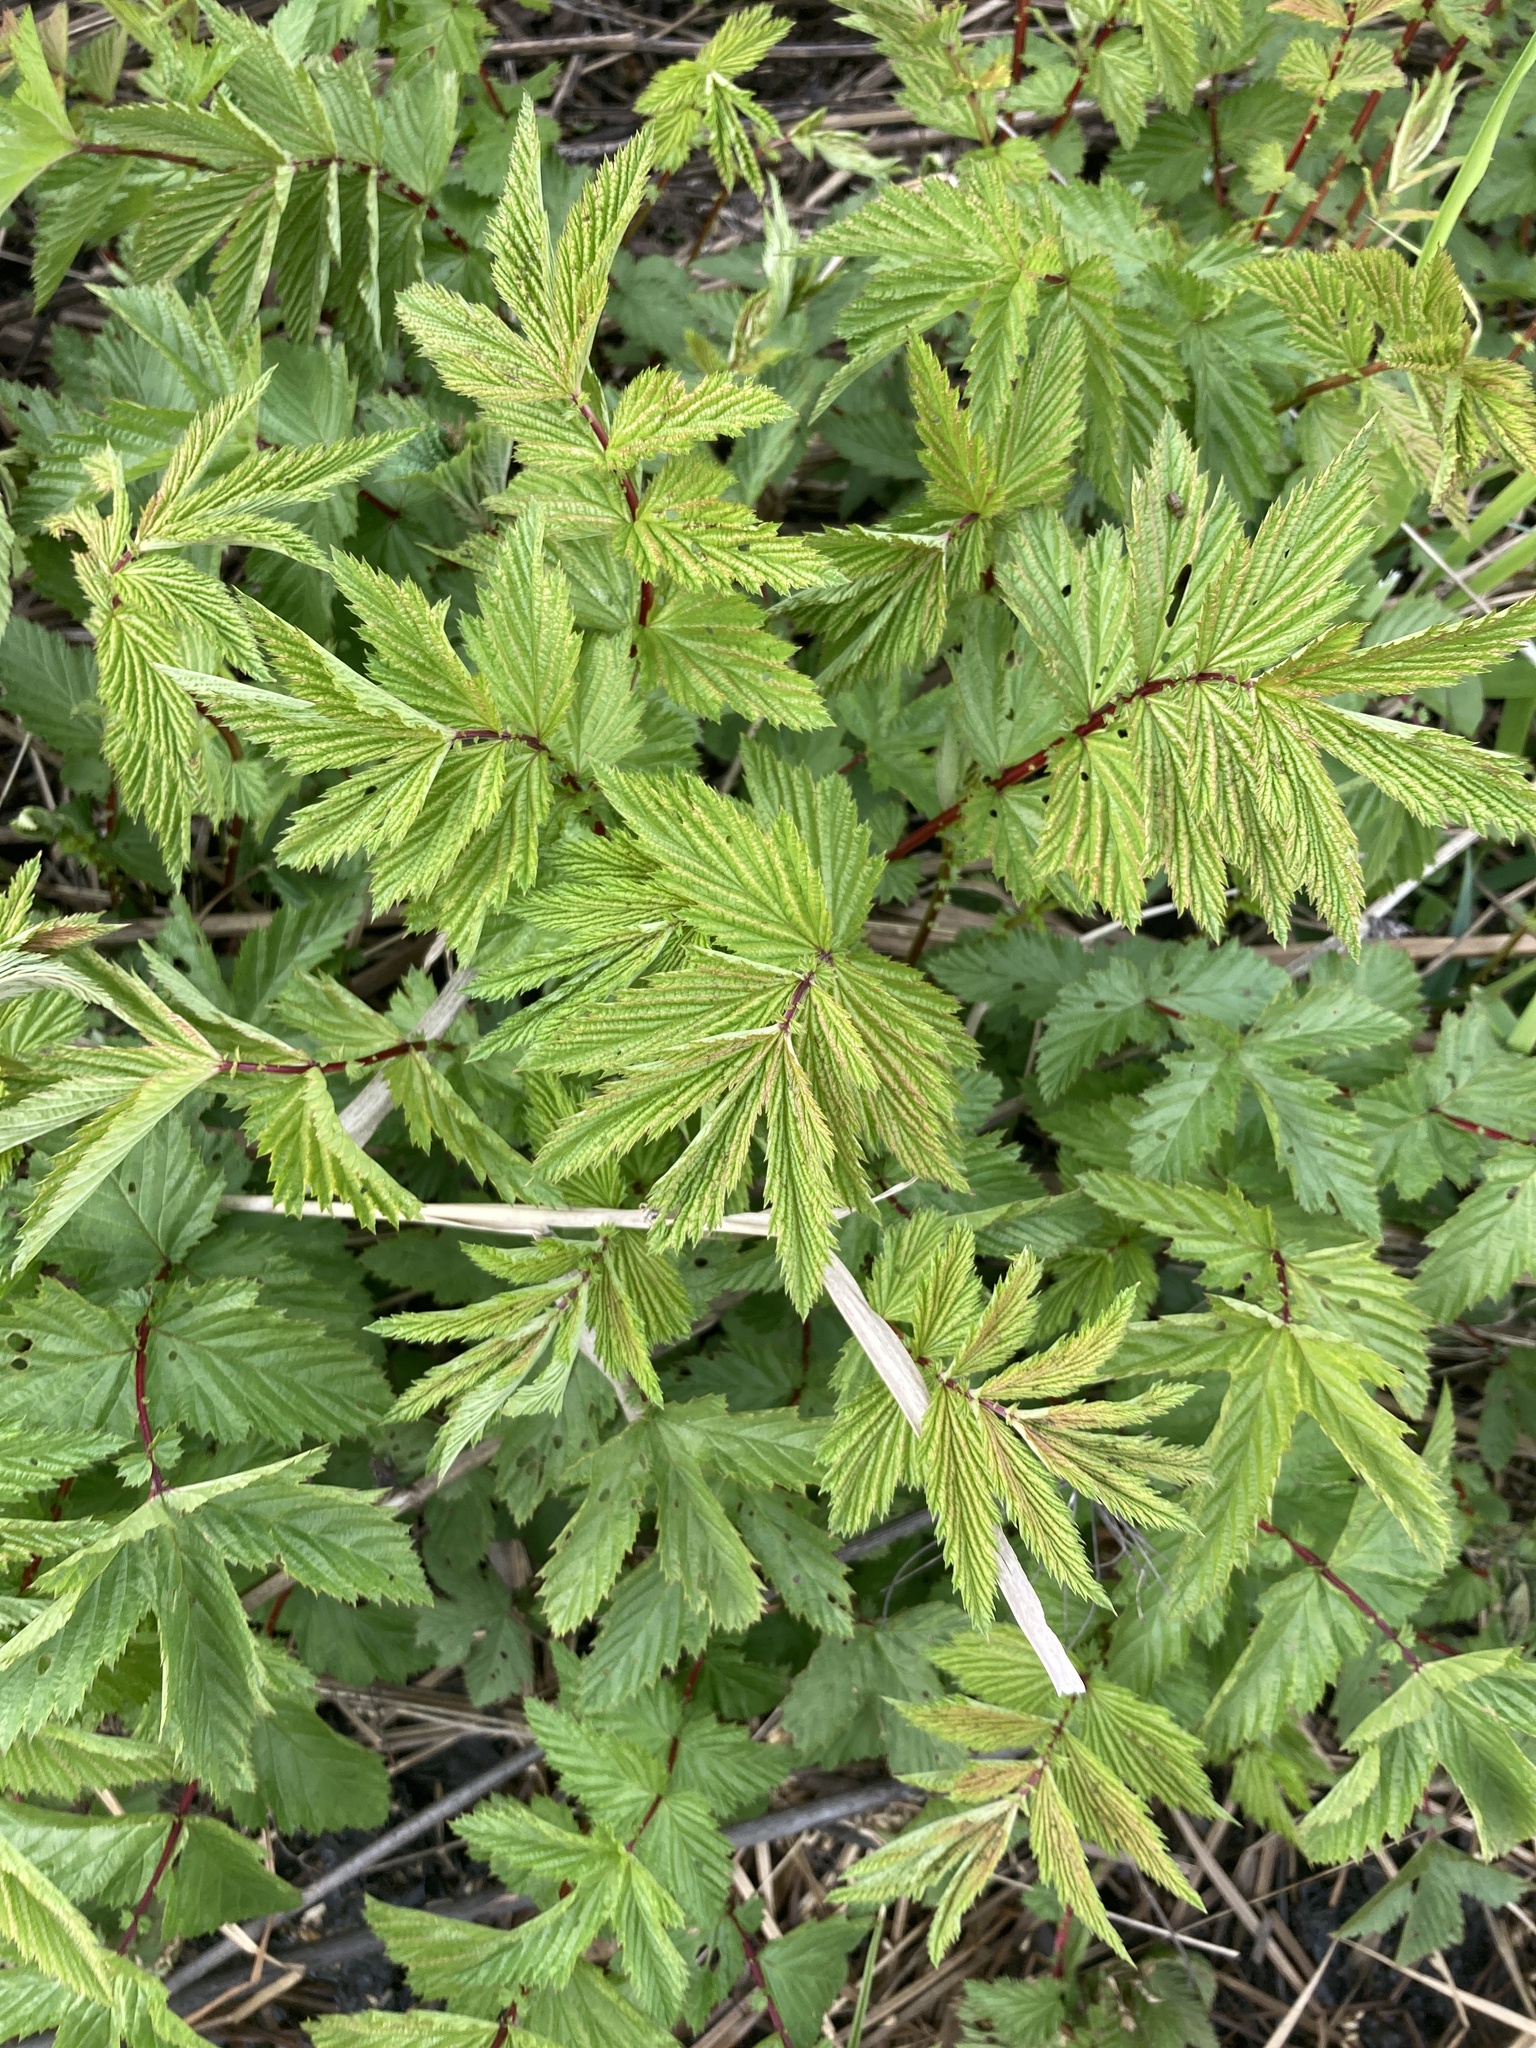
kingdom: Plantae
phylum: Tracheophyta
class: Magnoliopsida
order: Rosales
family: Rosaceae
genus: Filipendula
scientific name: Filipendula ulmaria
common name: Meadowsweet
